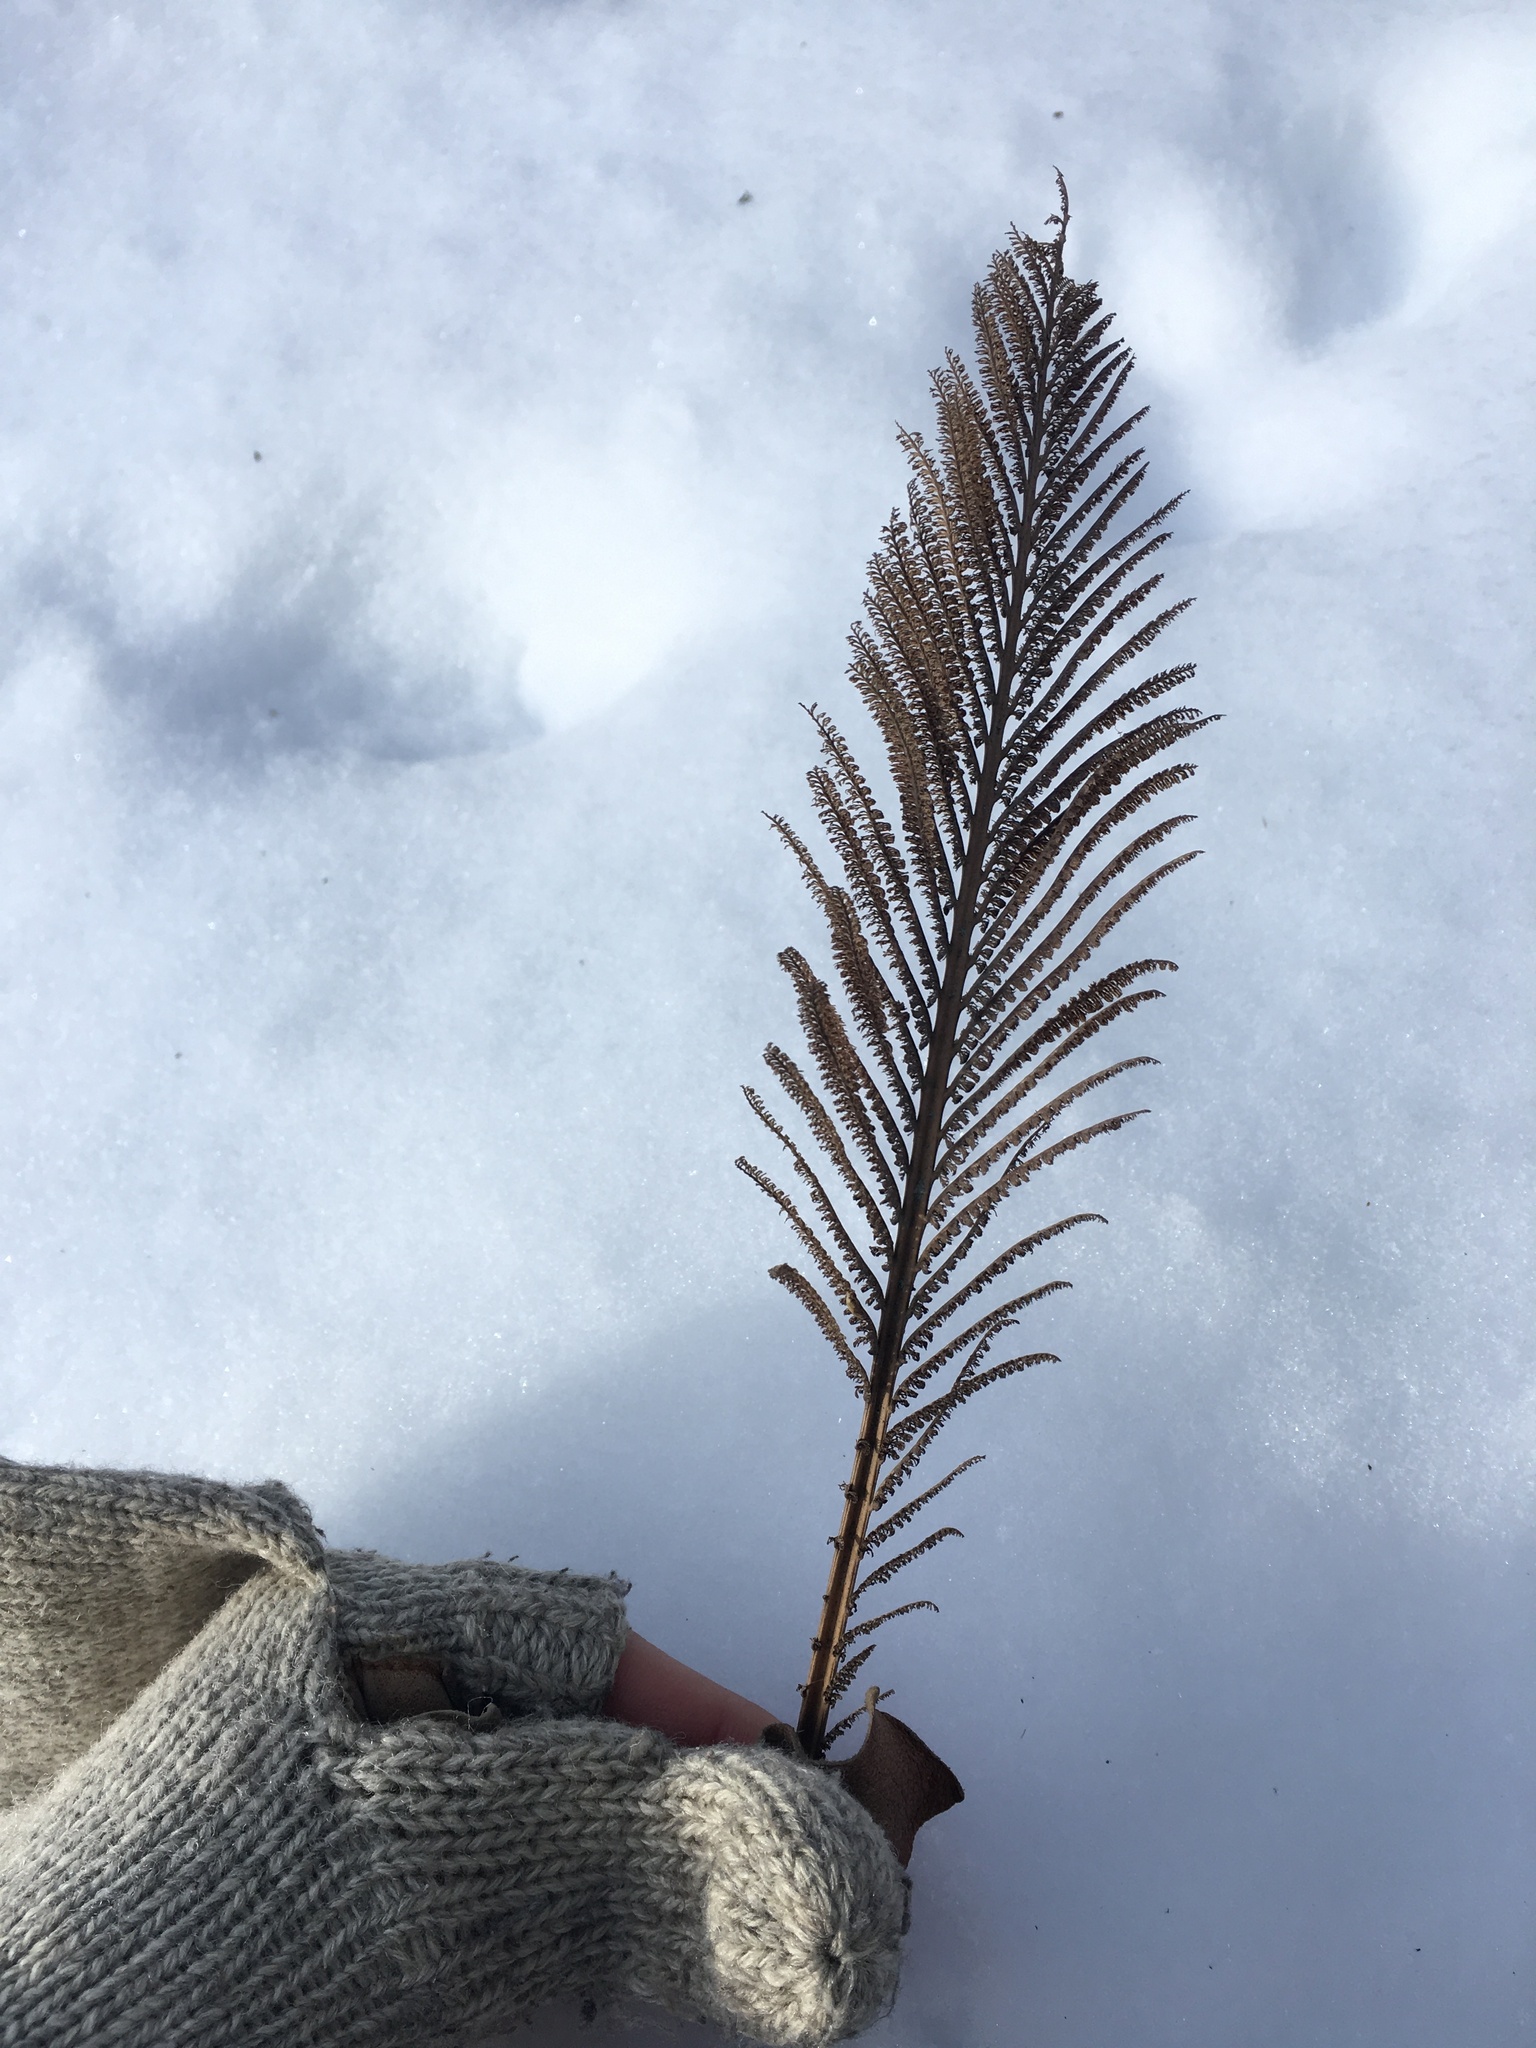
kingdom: Plantae
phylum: Tracheophyta
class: Polypodiopsida
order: Polypodiales
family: Onocleaceae
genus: Matteuccia
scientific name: Matteuccia struthiopteris
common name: Ostrich fern
